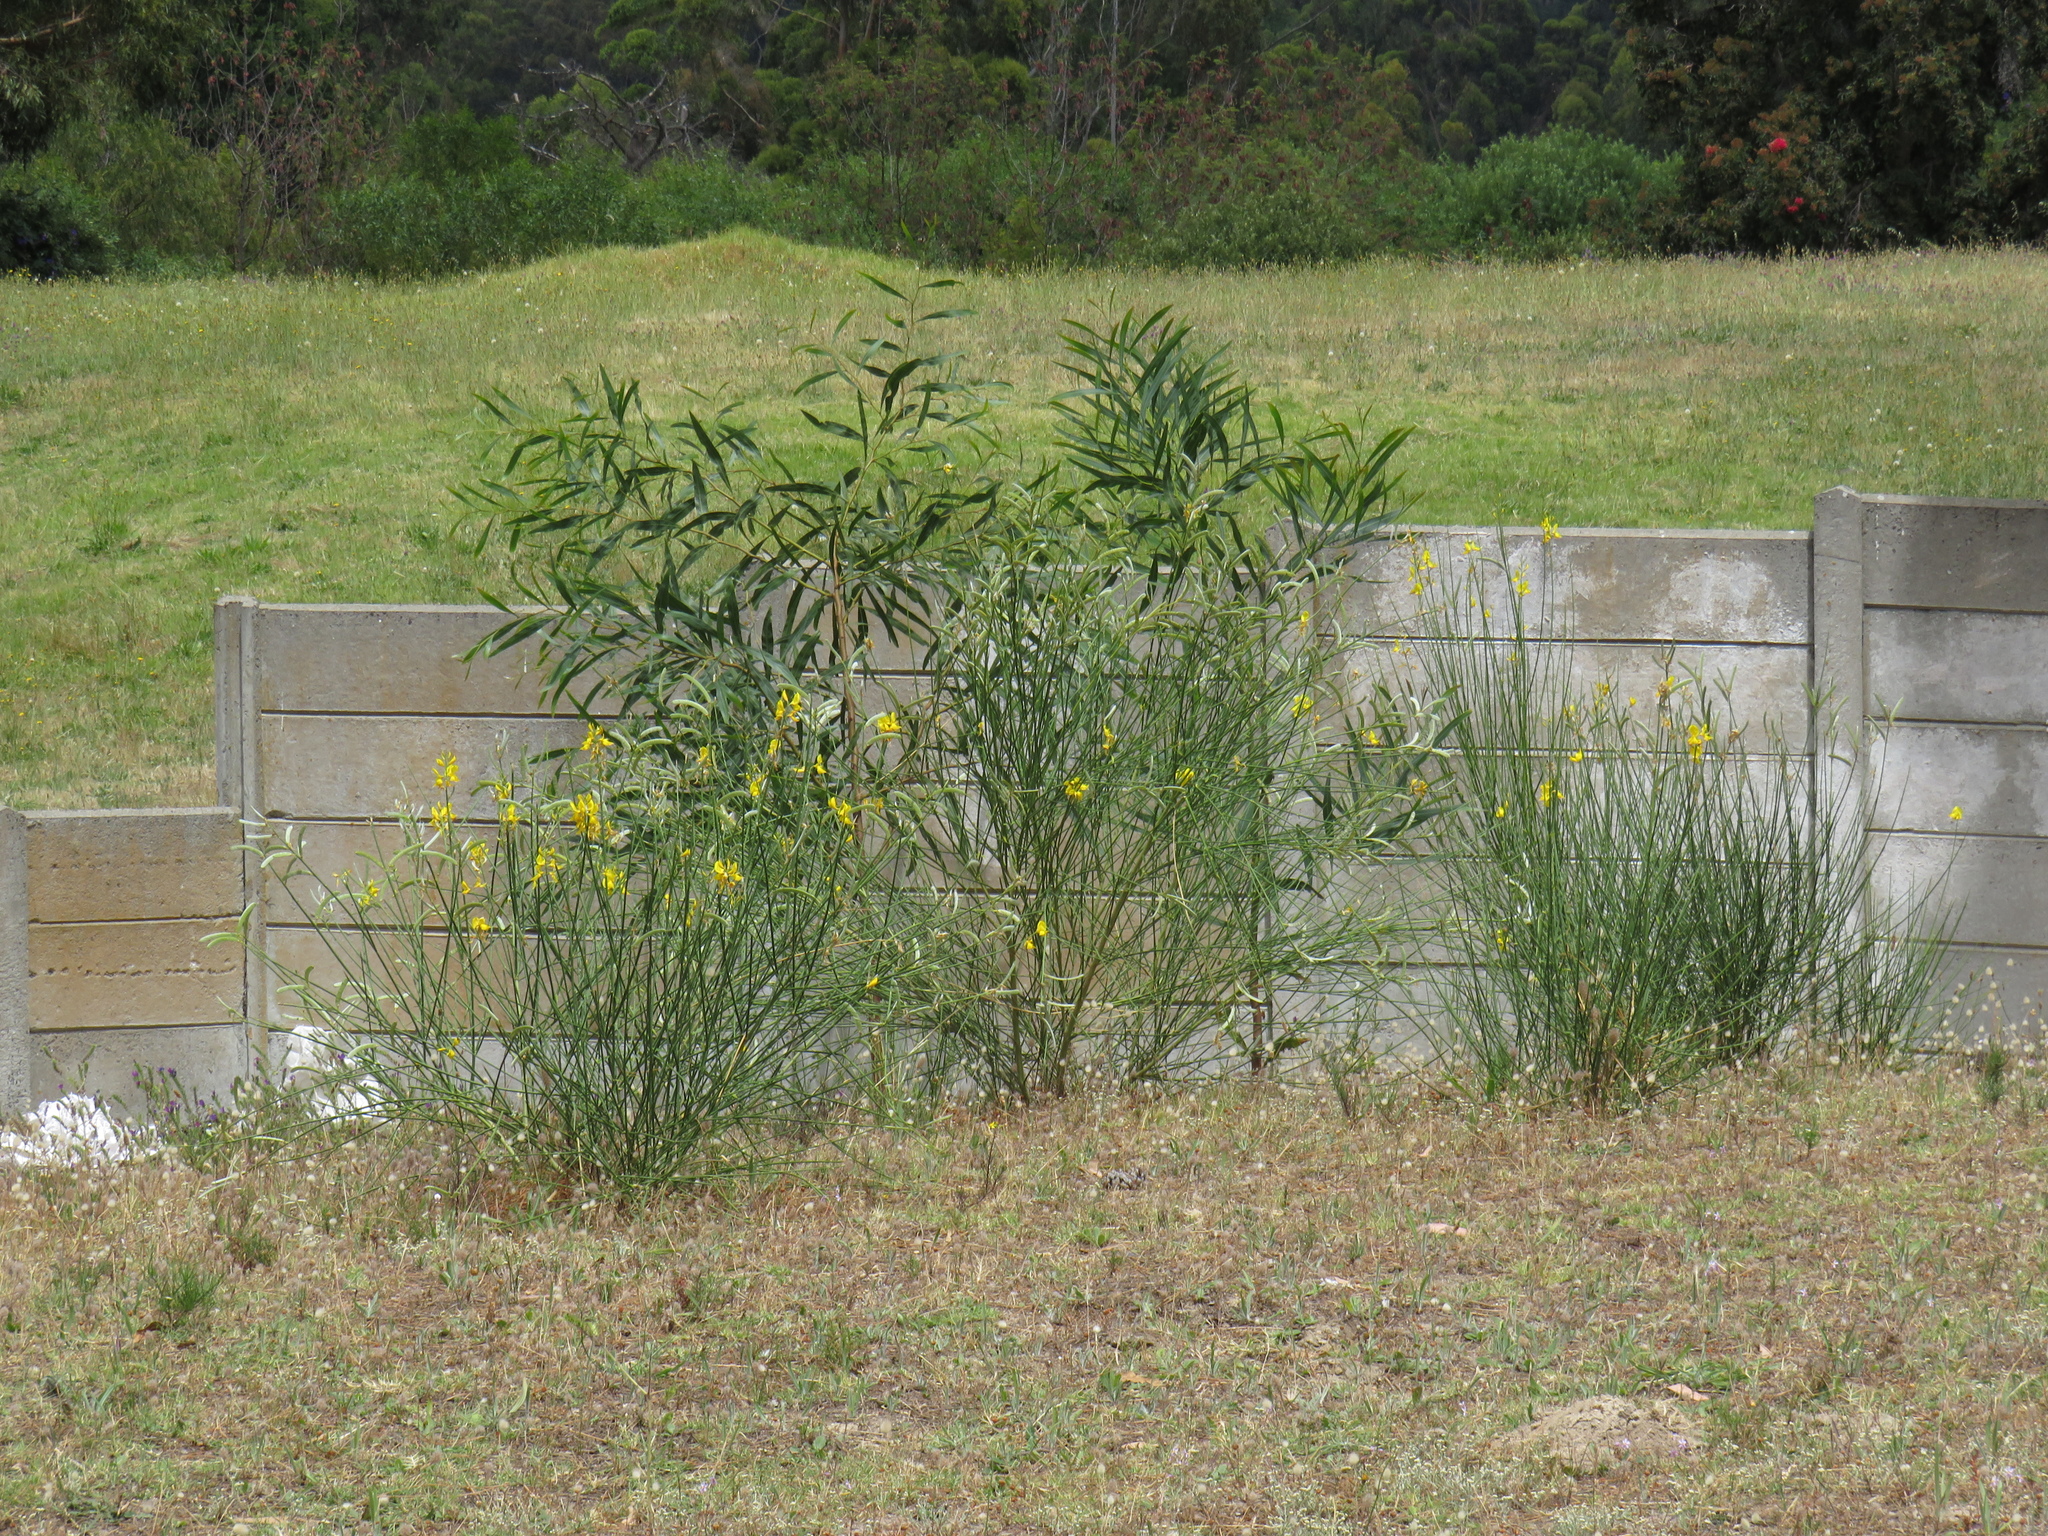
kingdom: Plantae
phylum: Tracheophyta
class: Magnoliopsida
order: Fabales
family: Fabaceae
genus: Spartium
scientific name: Spartium junceum
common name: Spanish broom
